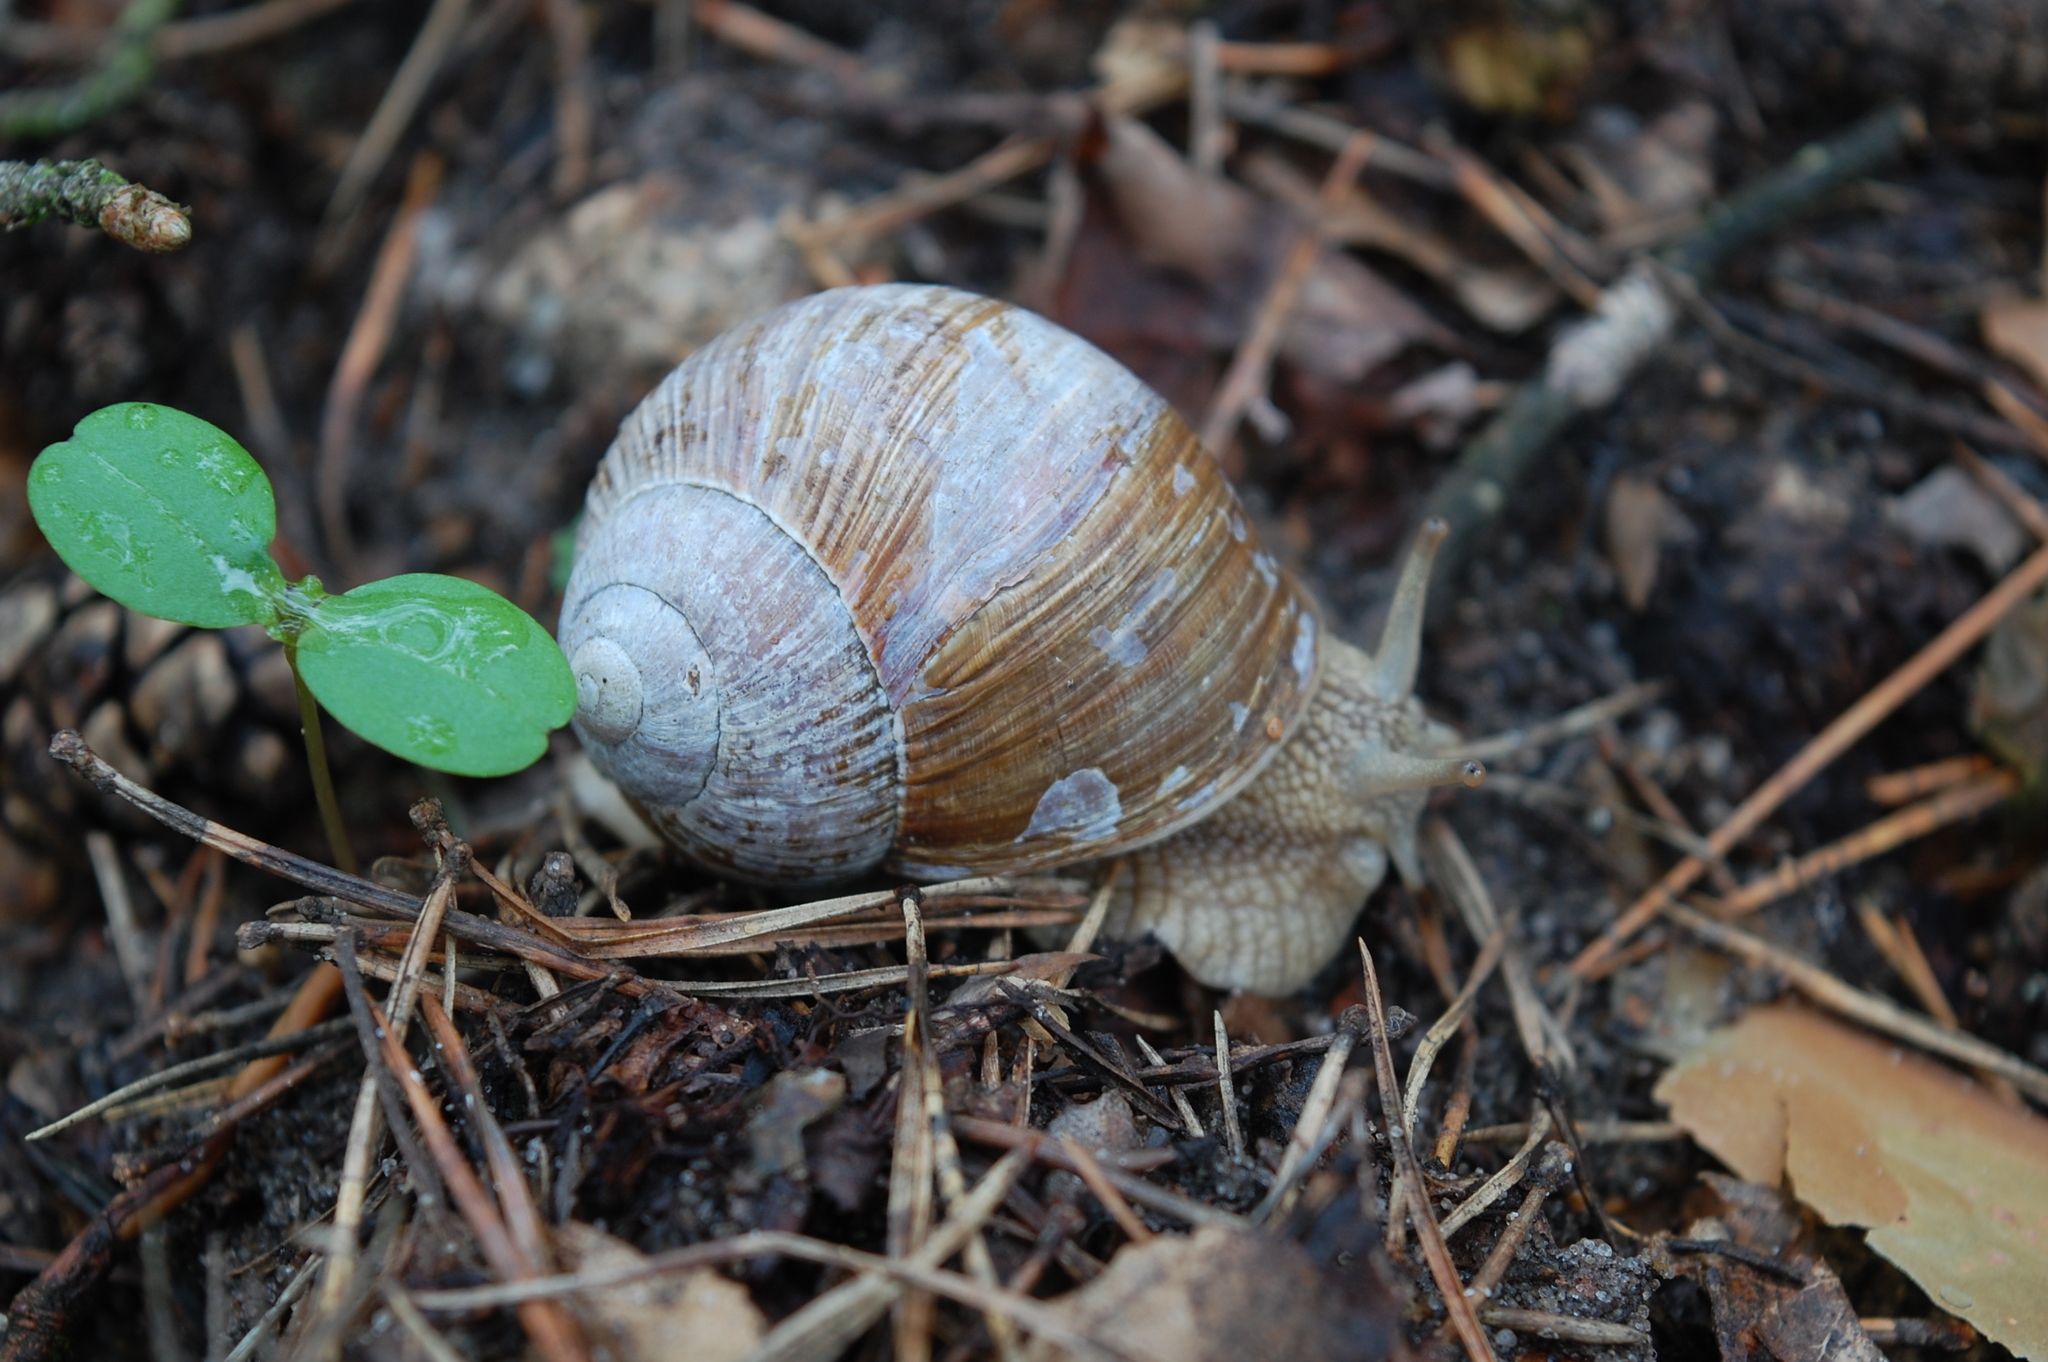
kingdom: Animalia
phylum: Mollusca
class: Gastropoda
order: Stylommatophora
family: Helicidae
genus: Helix
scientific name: Helix pomatia
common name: Roman snail
